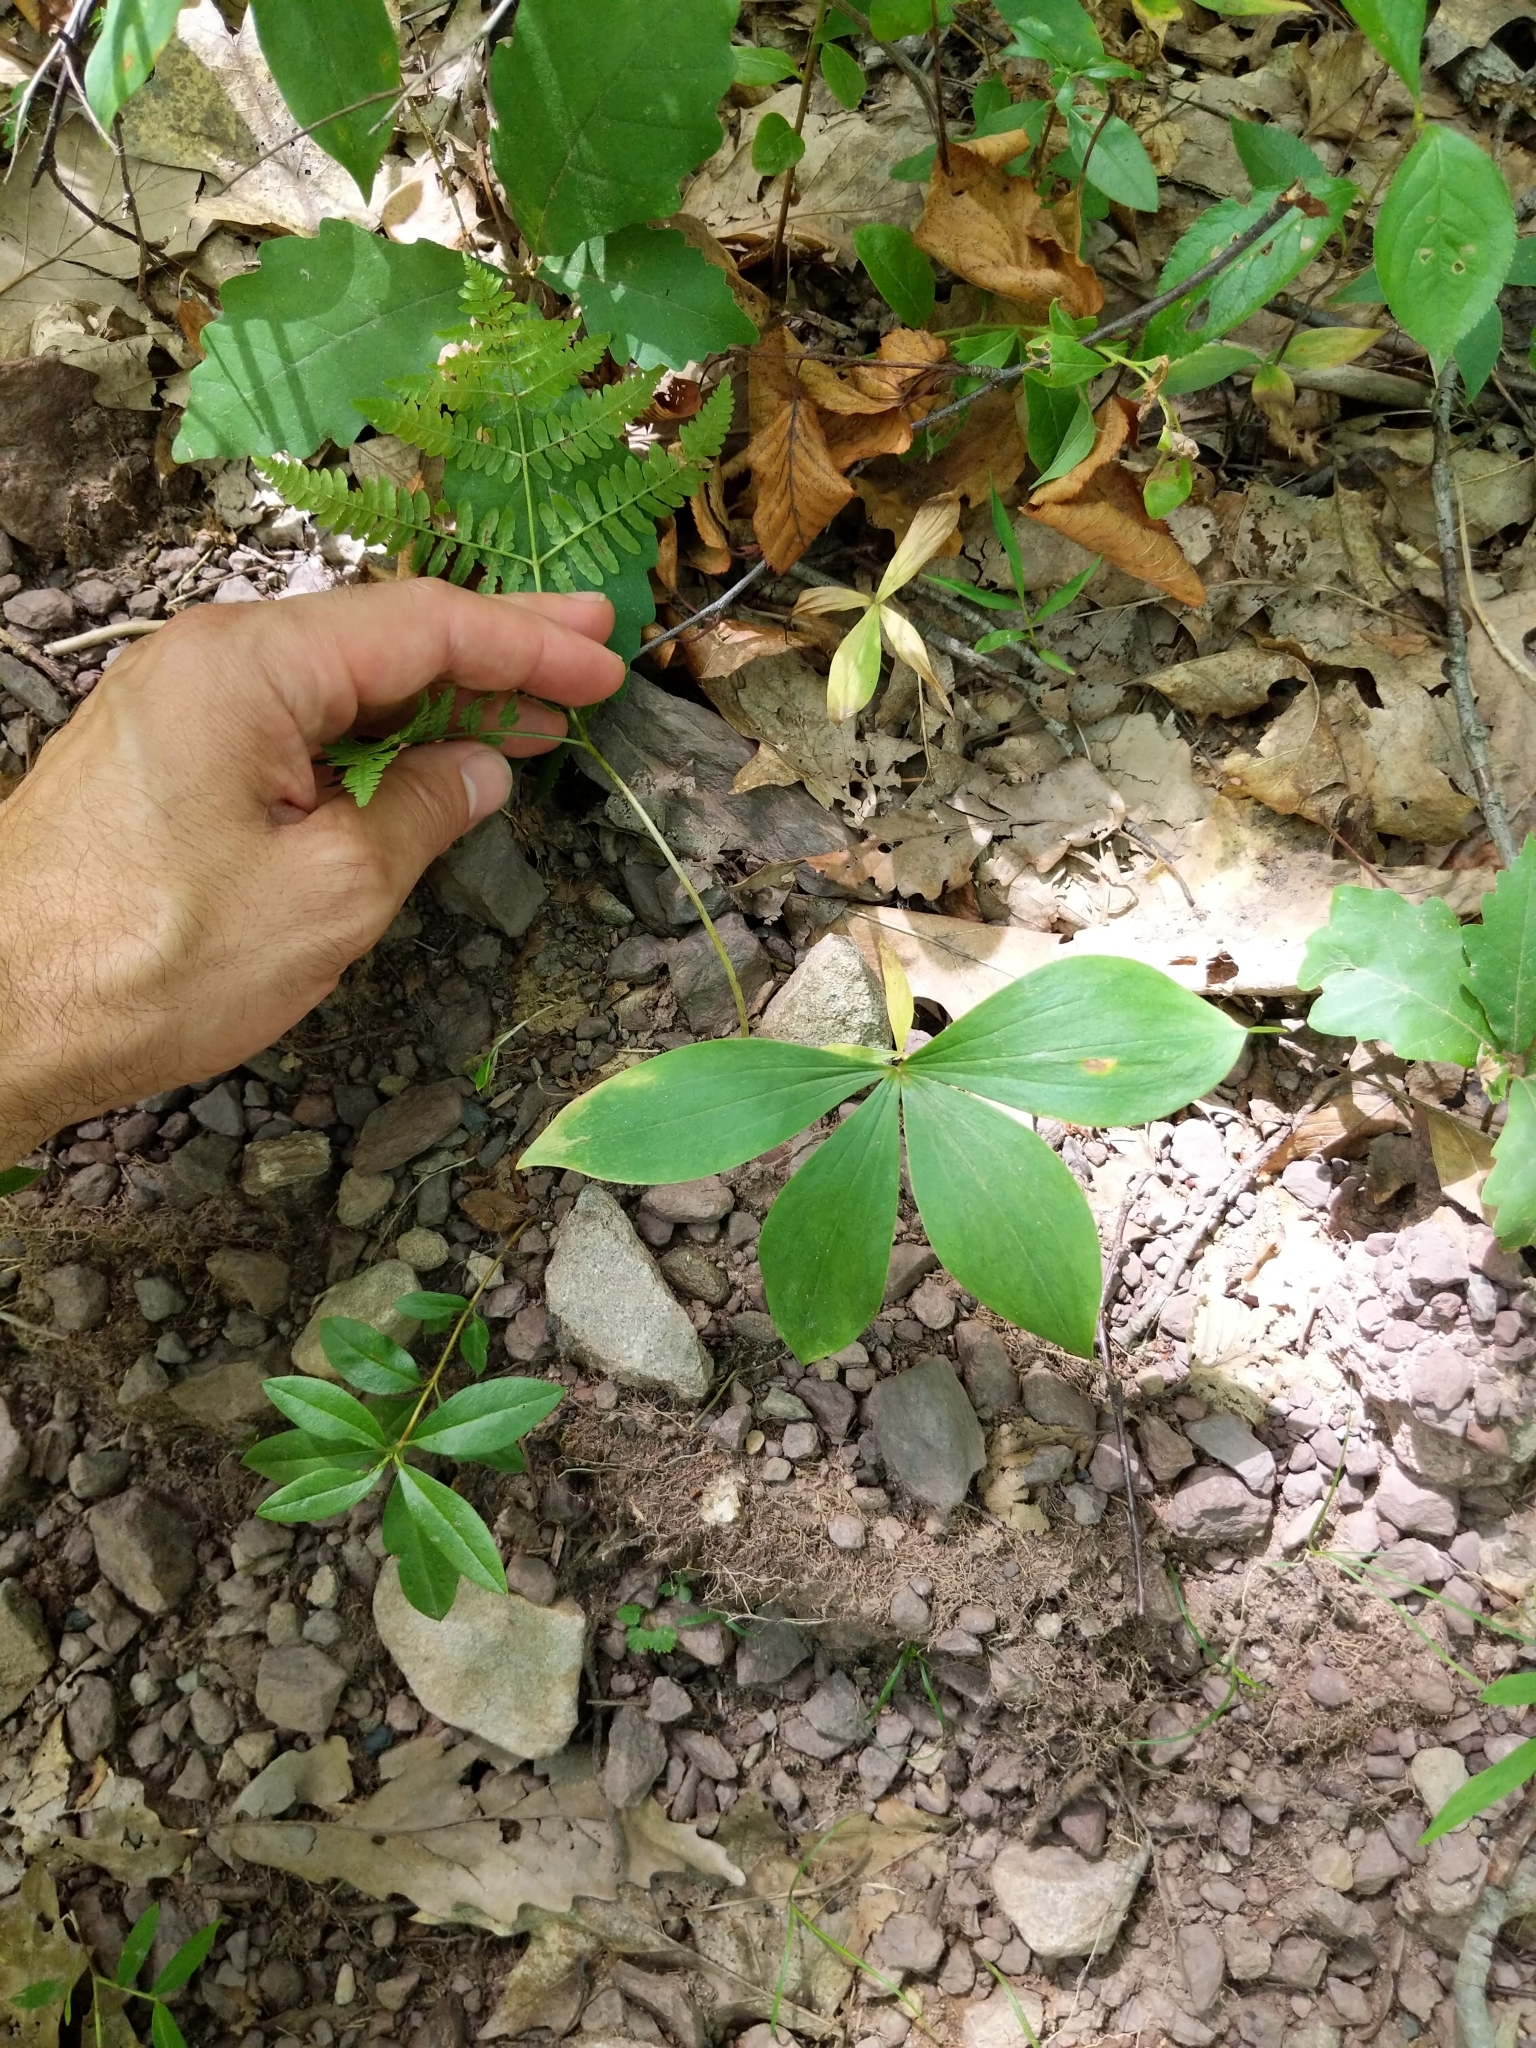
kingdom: Plantae
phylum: Tracheophyta
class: Liliopsida
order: Liliales
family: Liliaceae
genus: Medeola
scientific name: Medeola virginiana
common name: Indian cucumber-root
